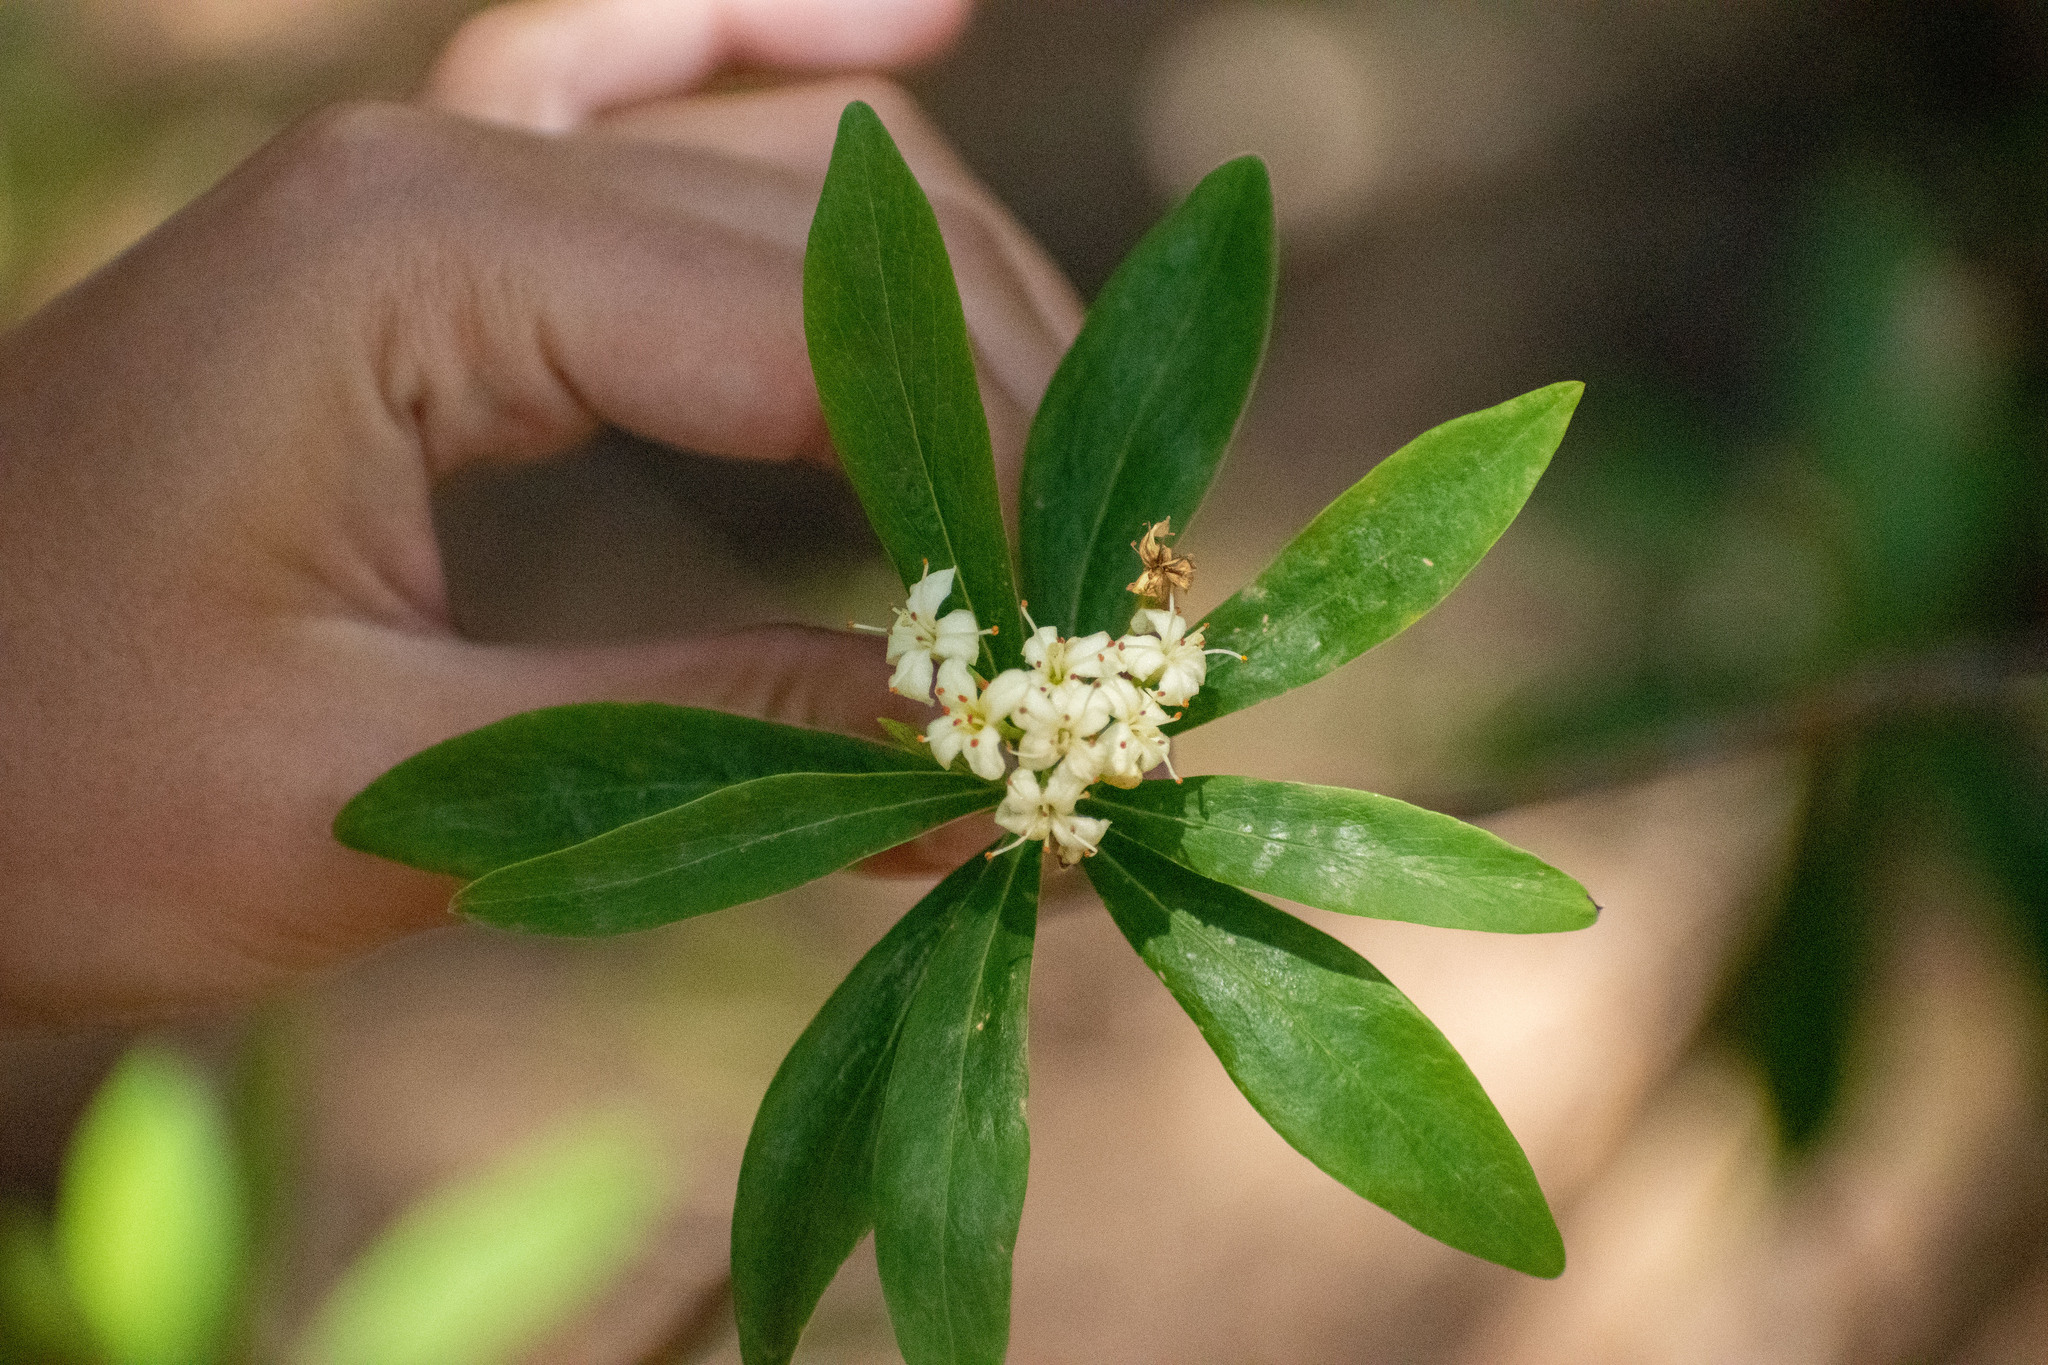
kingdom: Plantae
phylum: Tracheophyta
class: Magnoliopsida
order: Malvales
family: Thymelaeaceae
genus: Ovidia
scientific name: Ovidia andina
